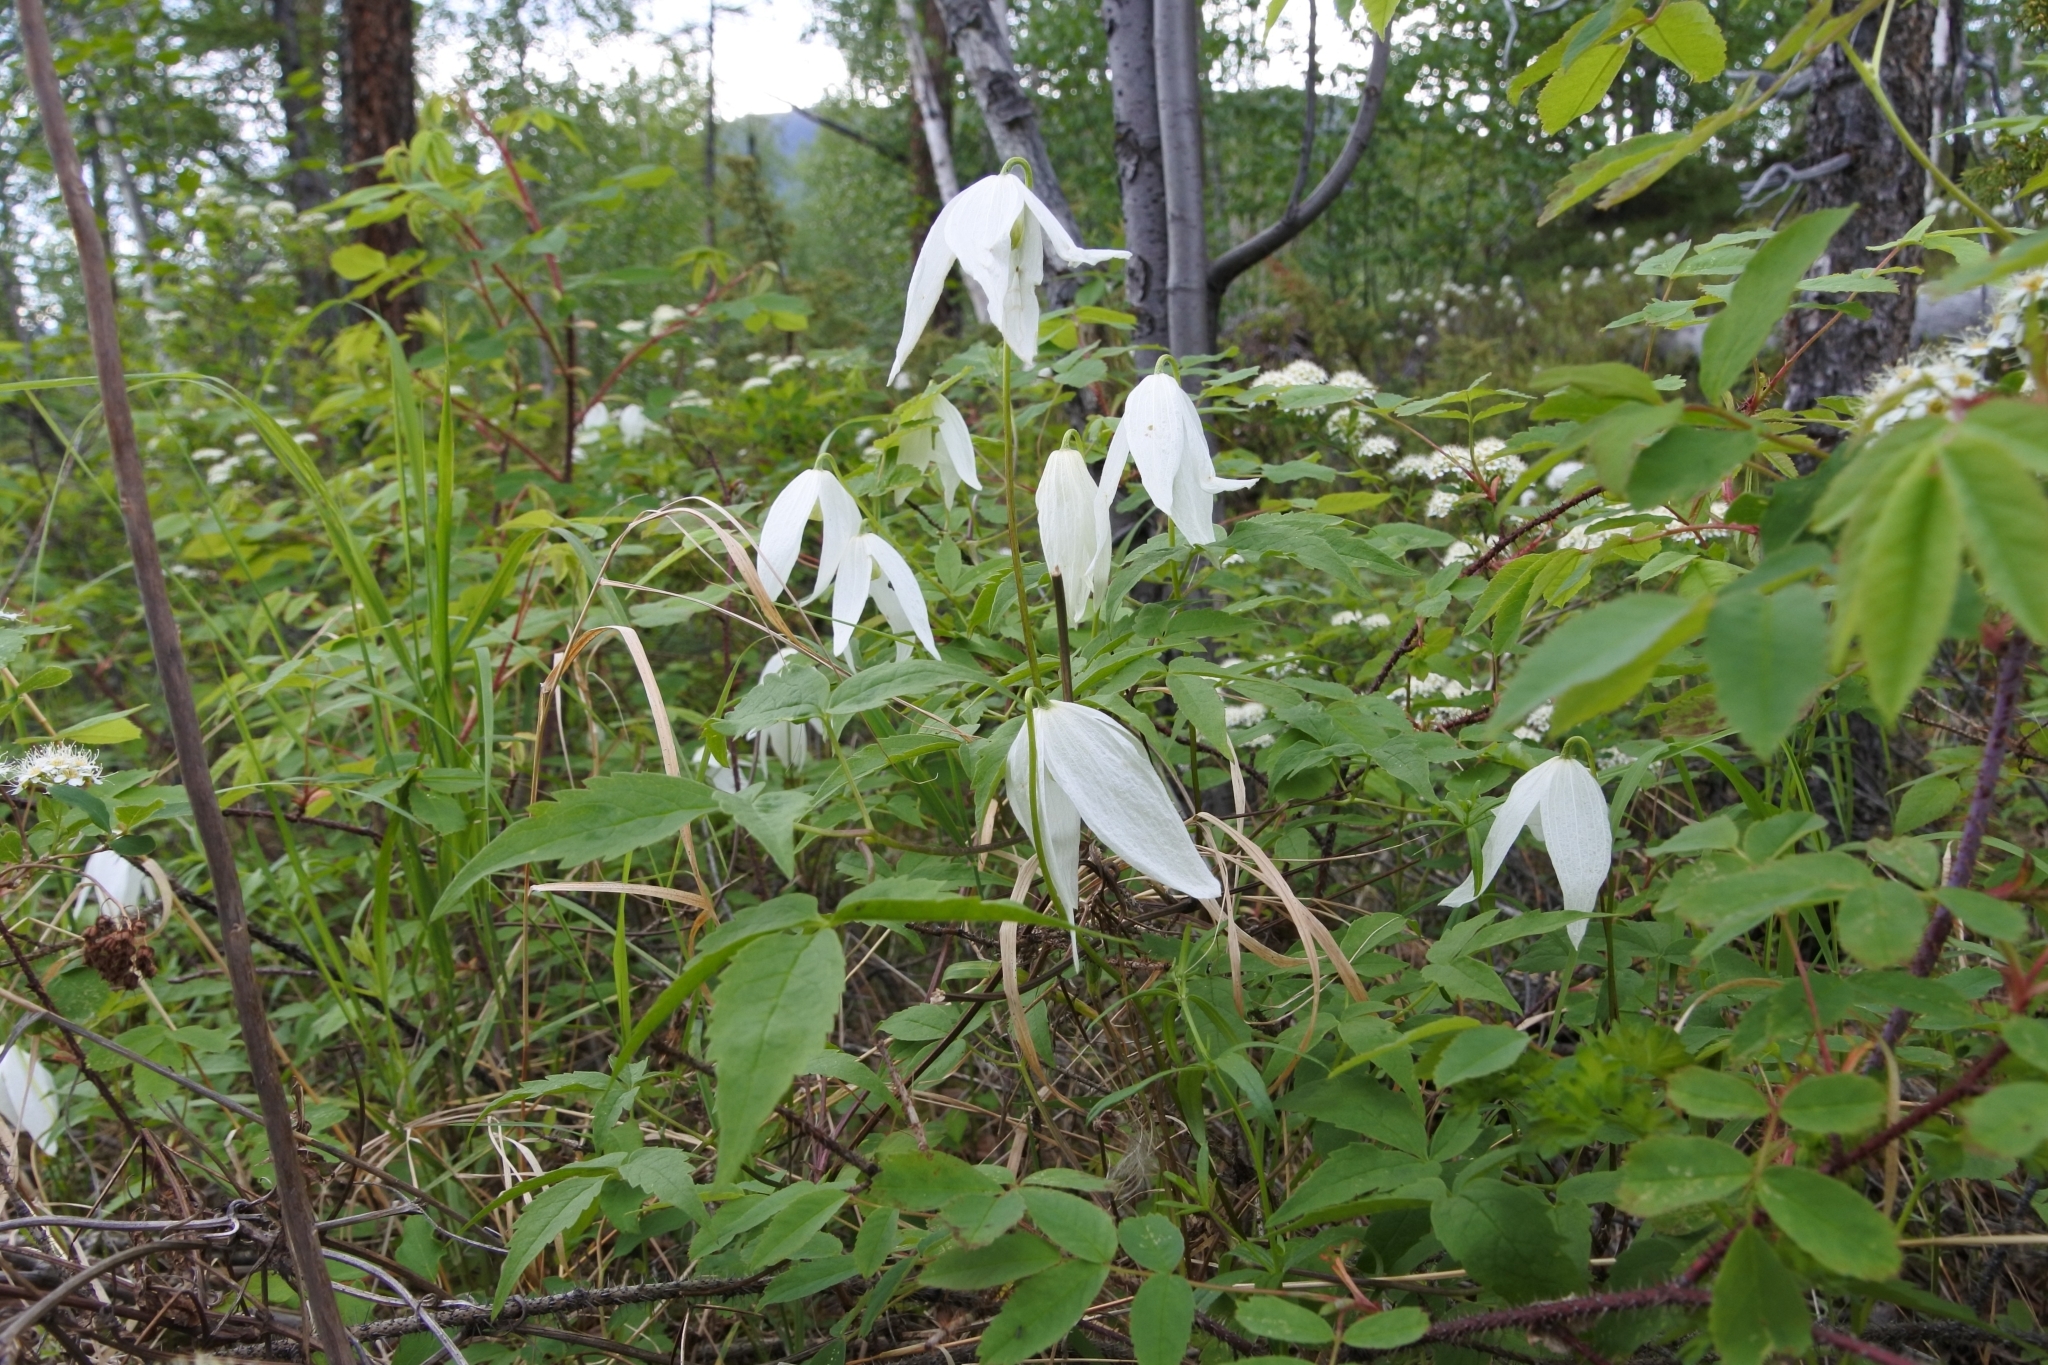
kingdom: Plantae
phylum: Tracheophyta
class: Magnoliopsida
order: Ranunculales
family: Ranunculaceae
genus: Clematis
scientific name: Clematis sibirica
